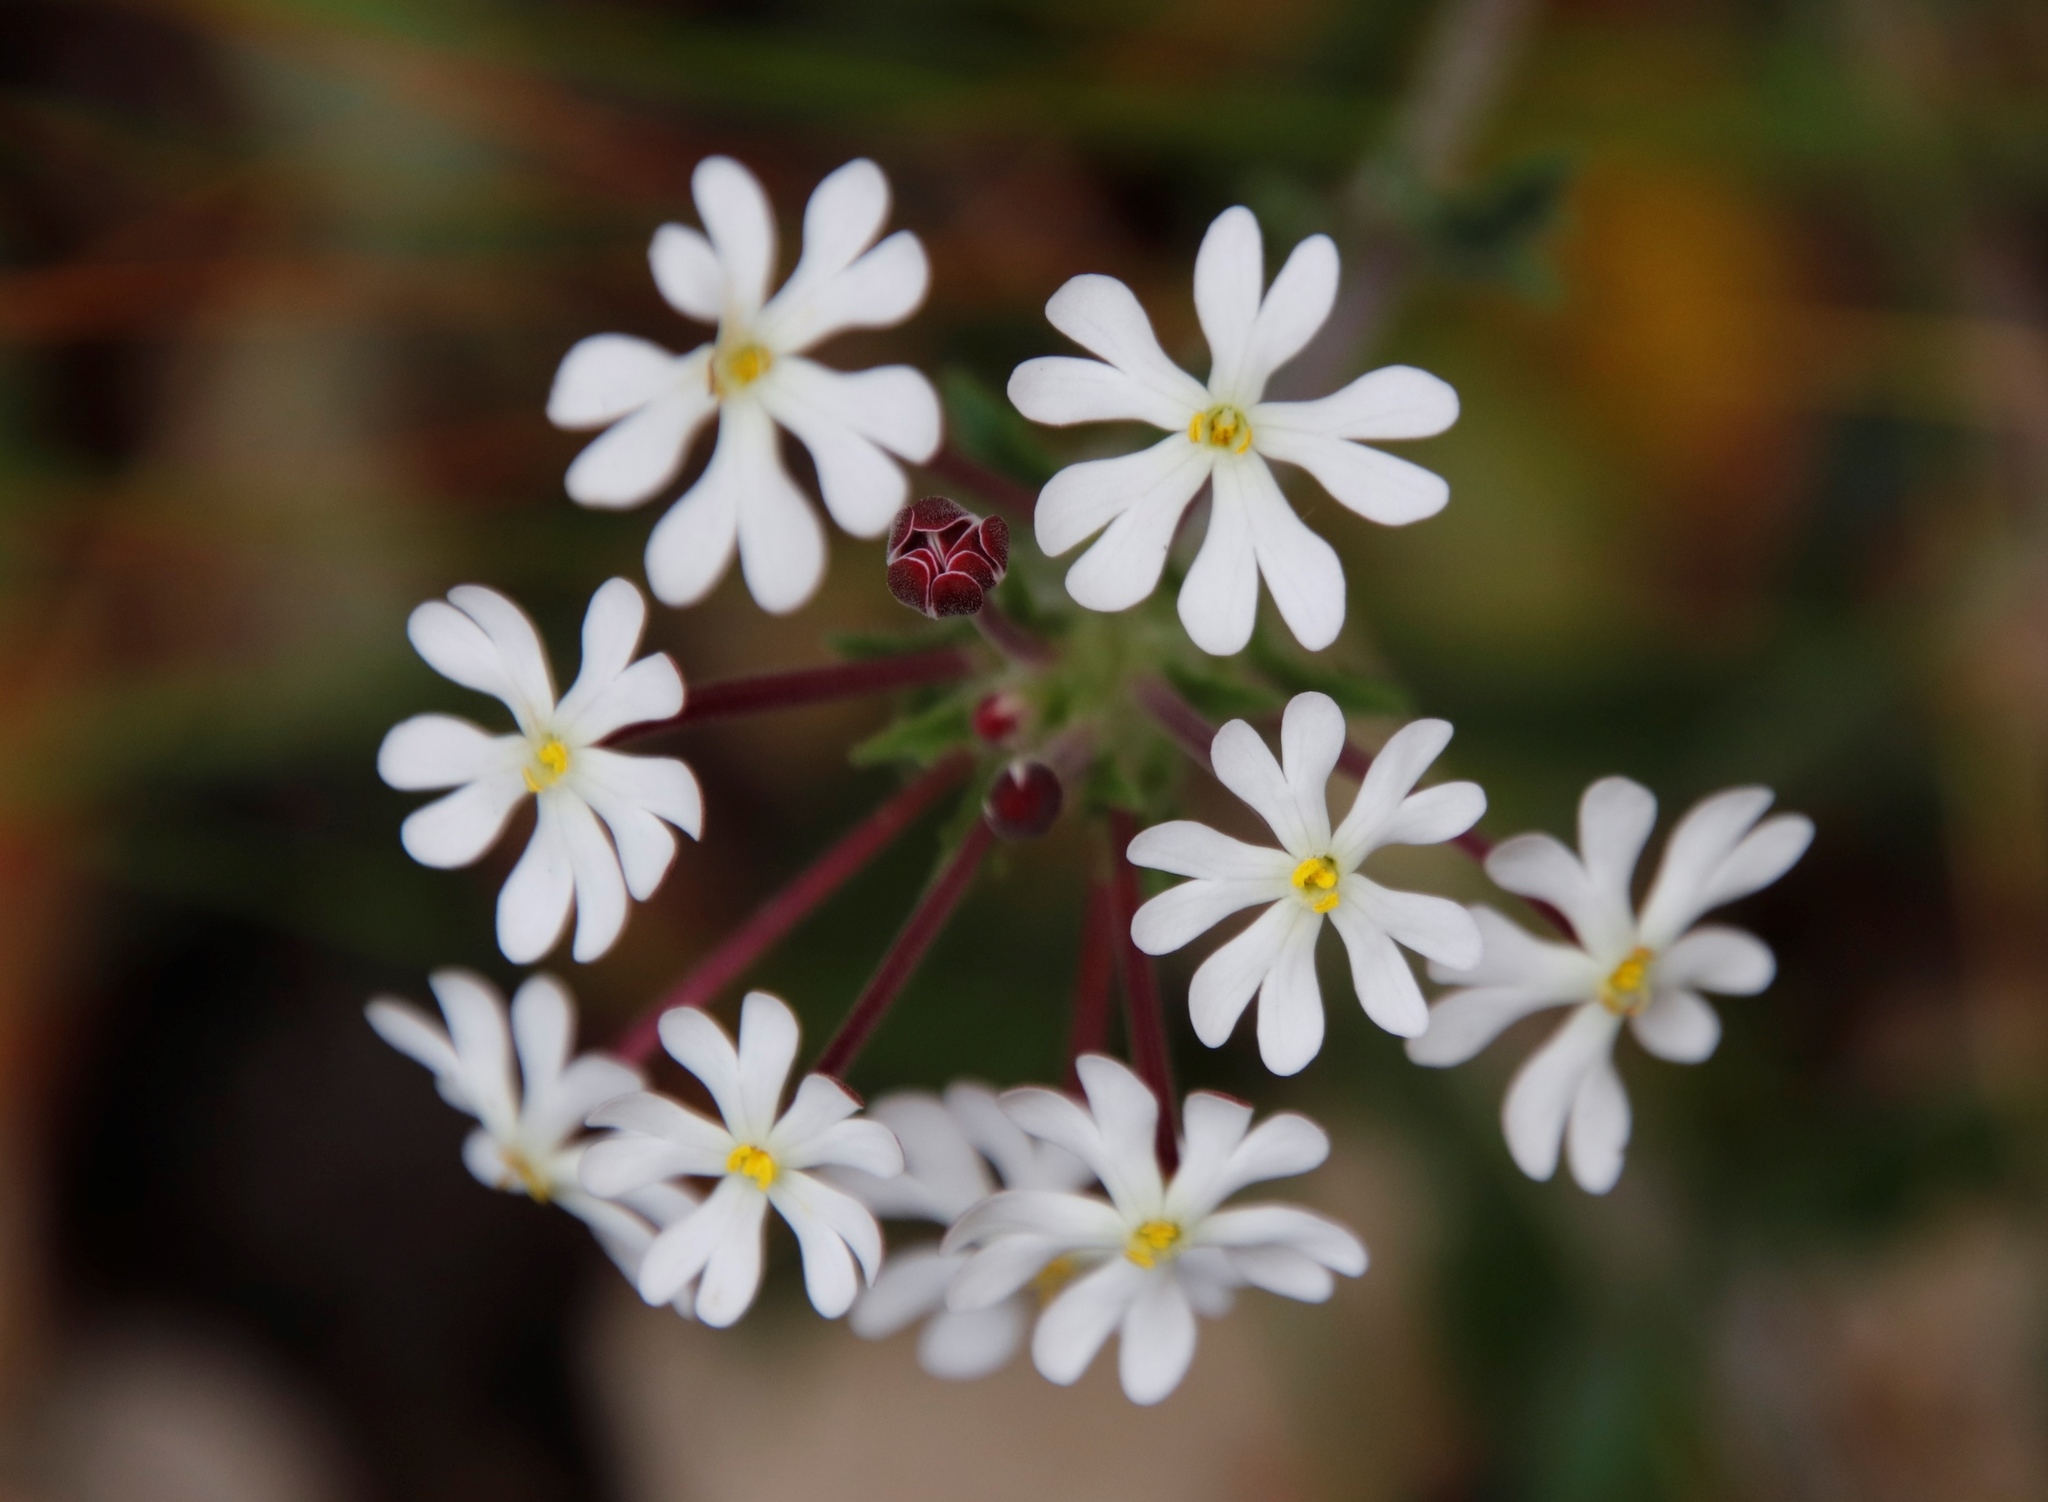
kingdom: Plantae
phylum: Tracheophyta
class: Magnoliopsida
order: Lamiales
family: Scrophulariaceae
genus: Zaluzianskya
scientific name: Zaluzianskya capensis
